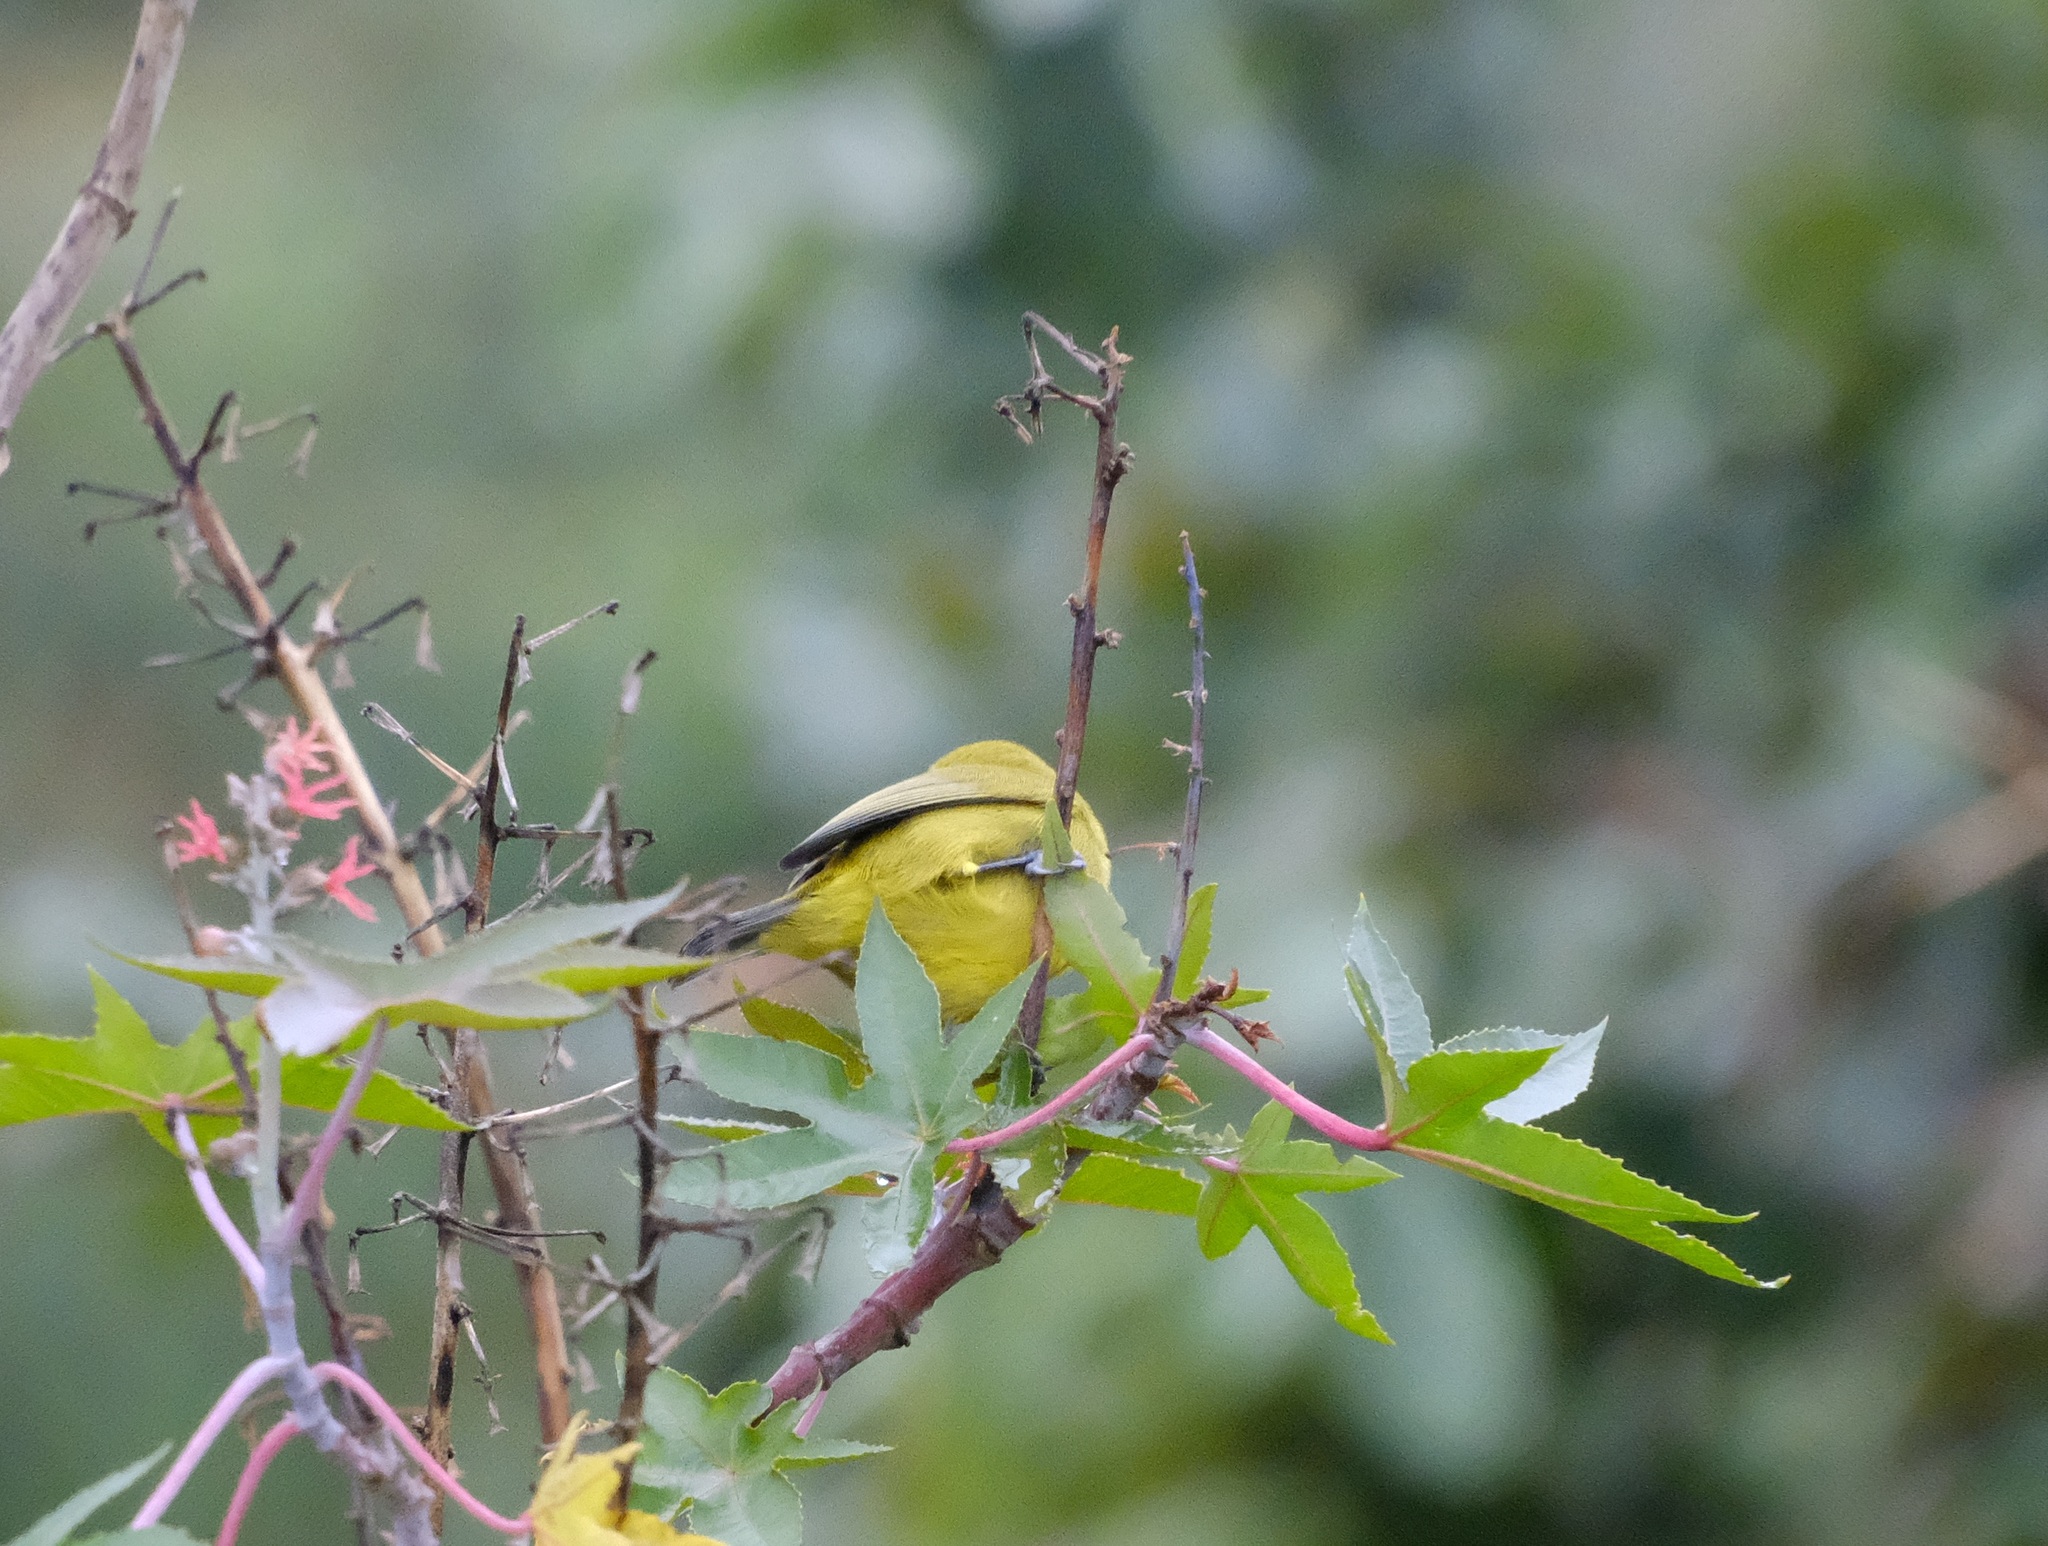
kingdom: Animalia
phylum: Chordata
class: Aves
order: Passeriformes
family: Zosteropidae
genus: Zosterops
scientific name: Zosterops stuhlmanni
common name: Green white-eye
